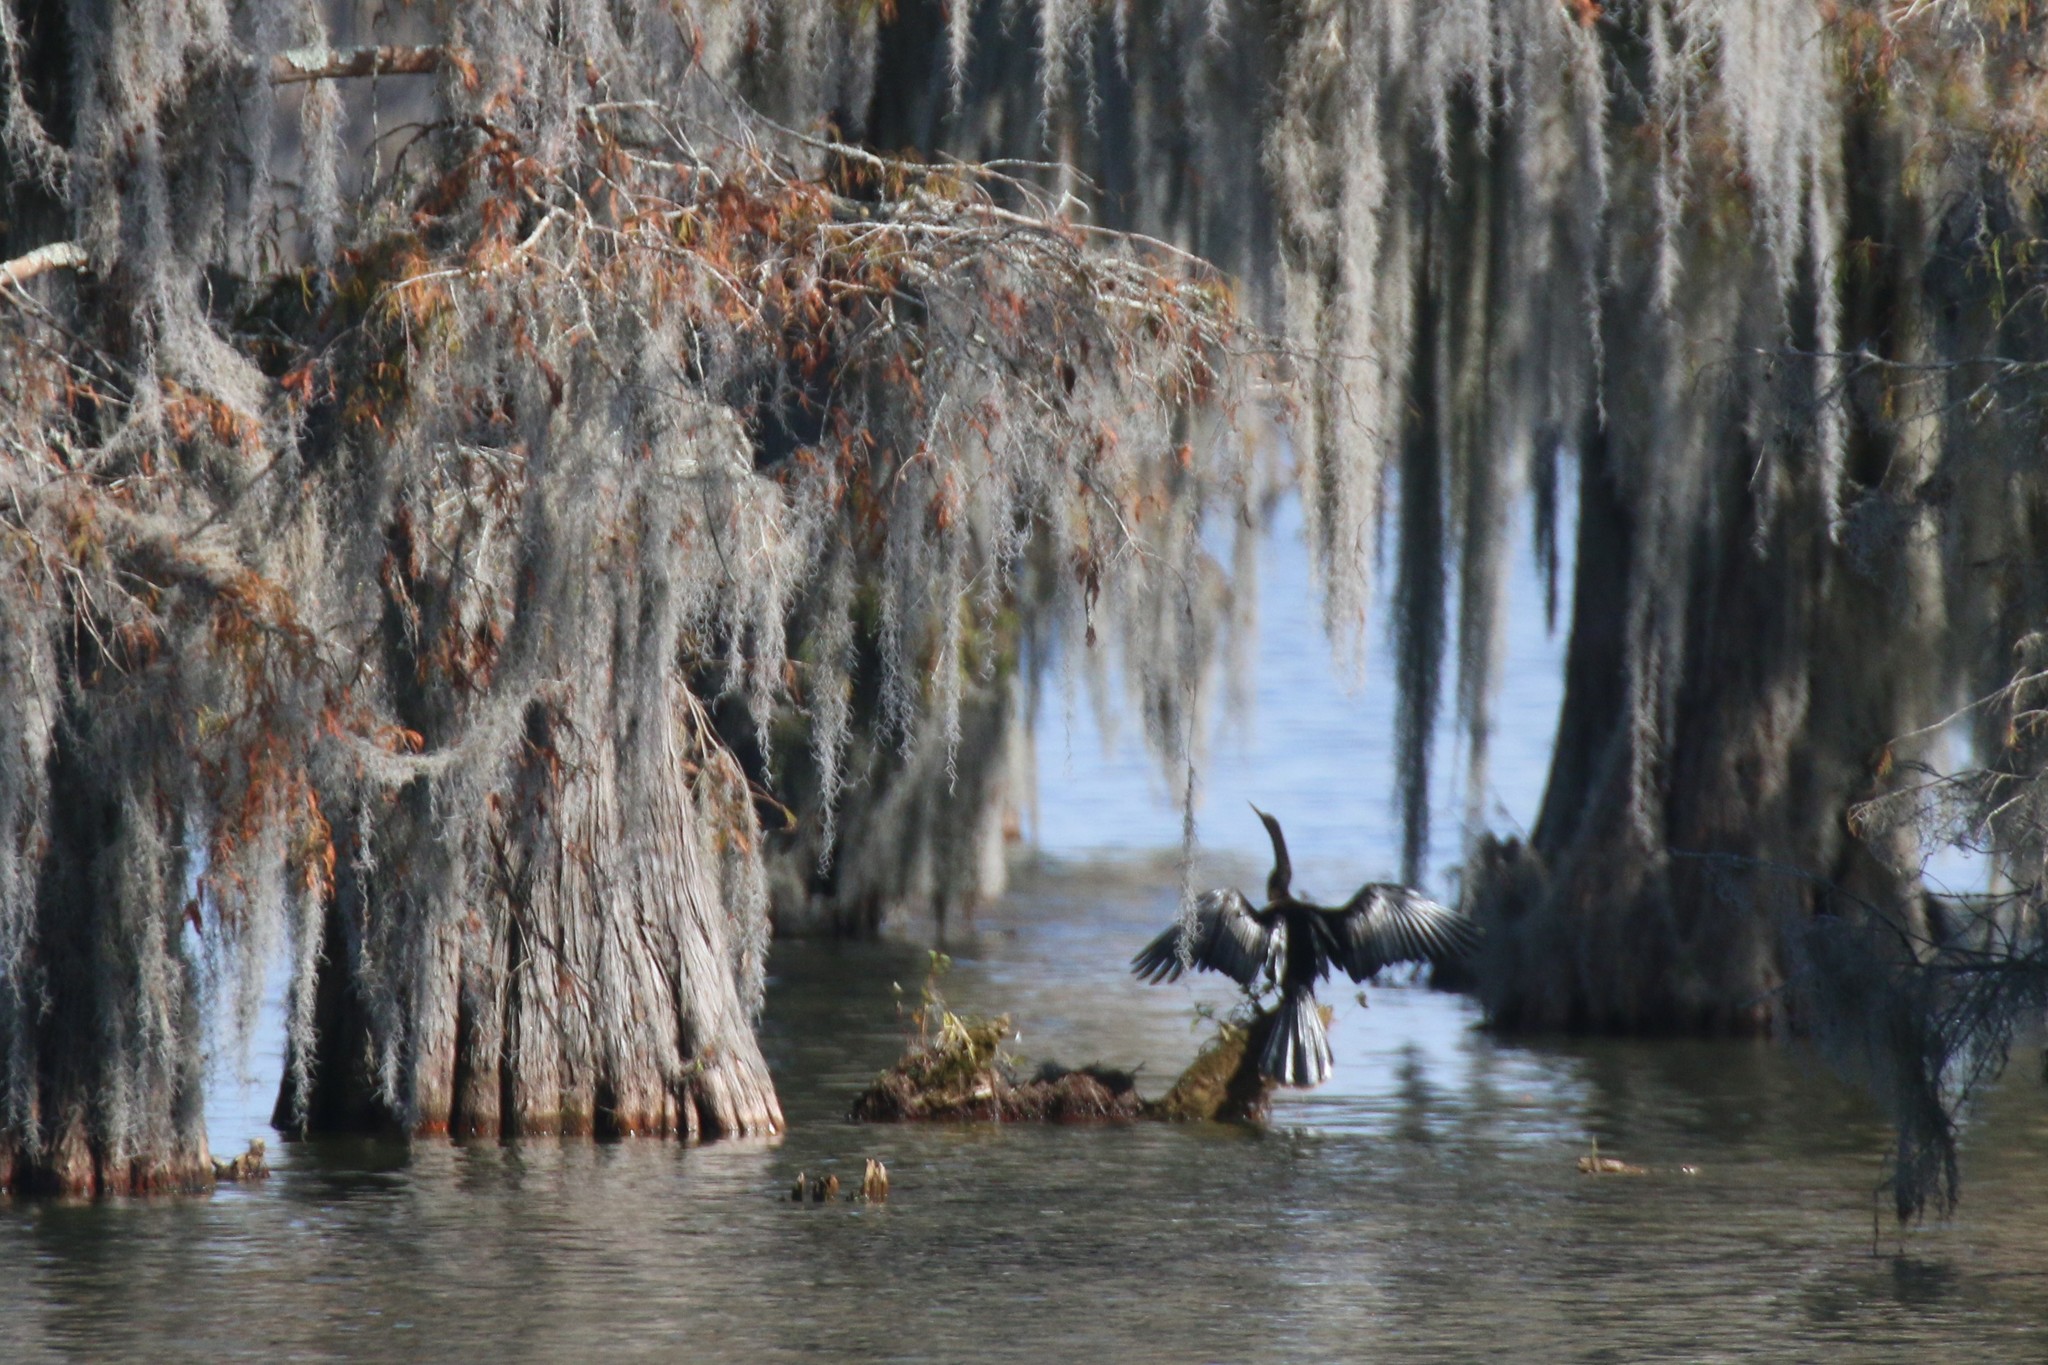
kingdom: Animalia
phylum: Chordata
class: Aves
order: Suliformes
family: Anhingidae
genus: Anhinga
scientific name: Anhinga anhinga
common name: Anhinga
